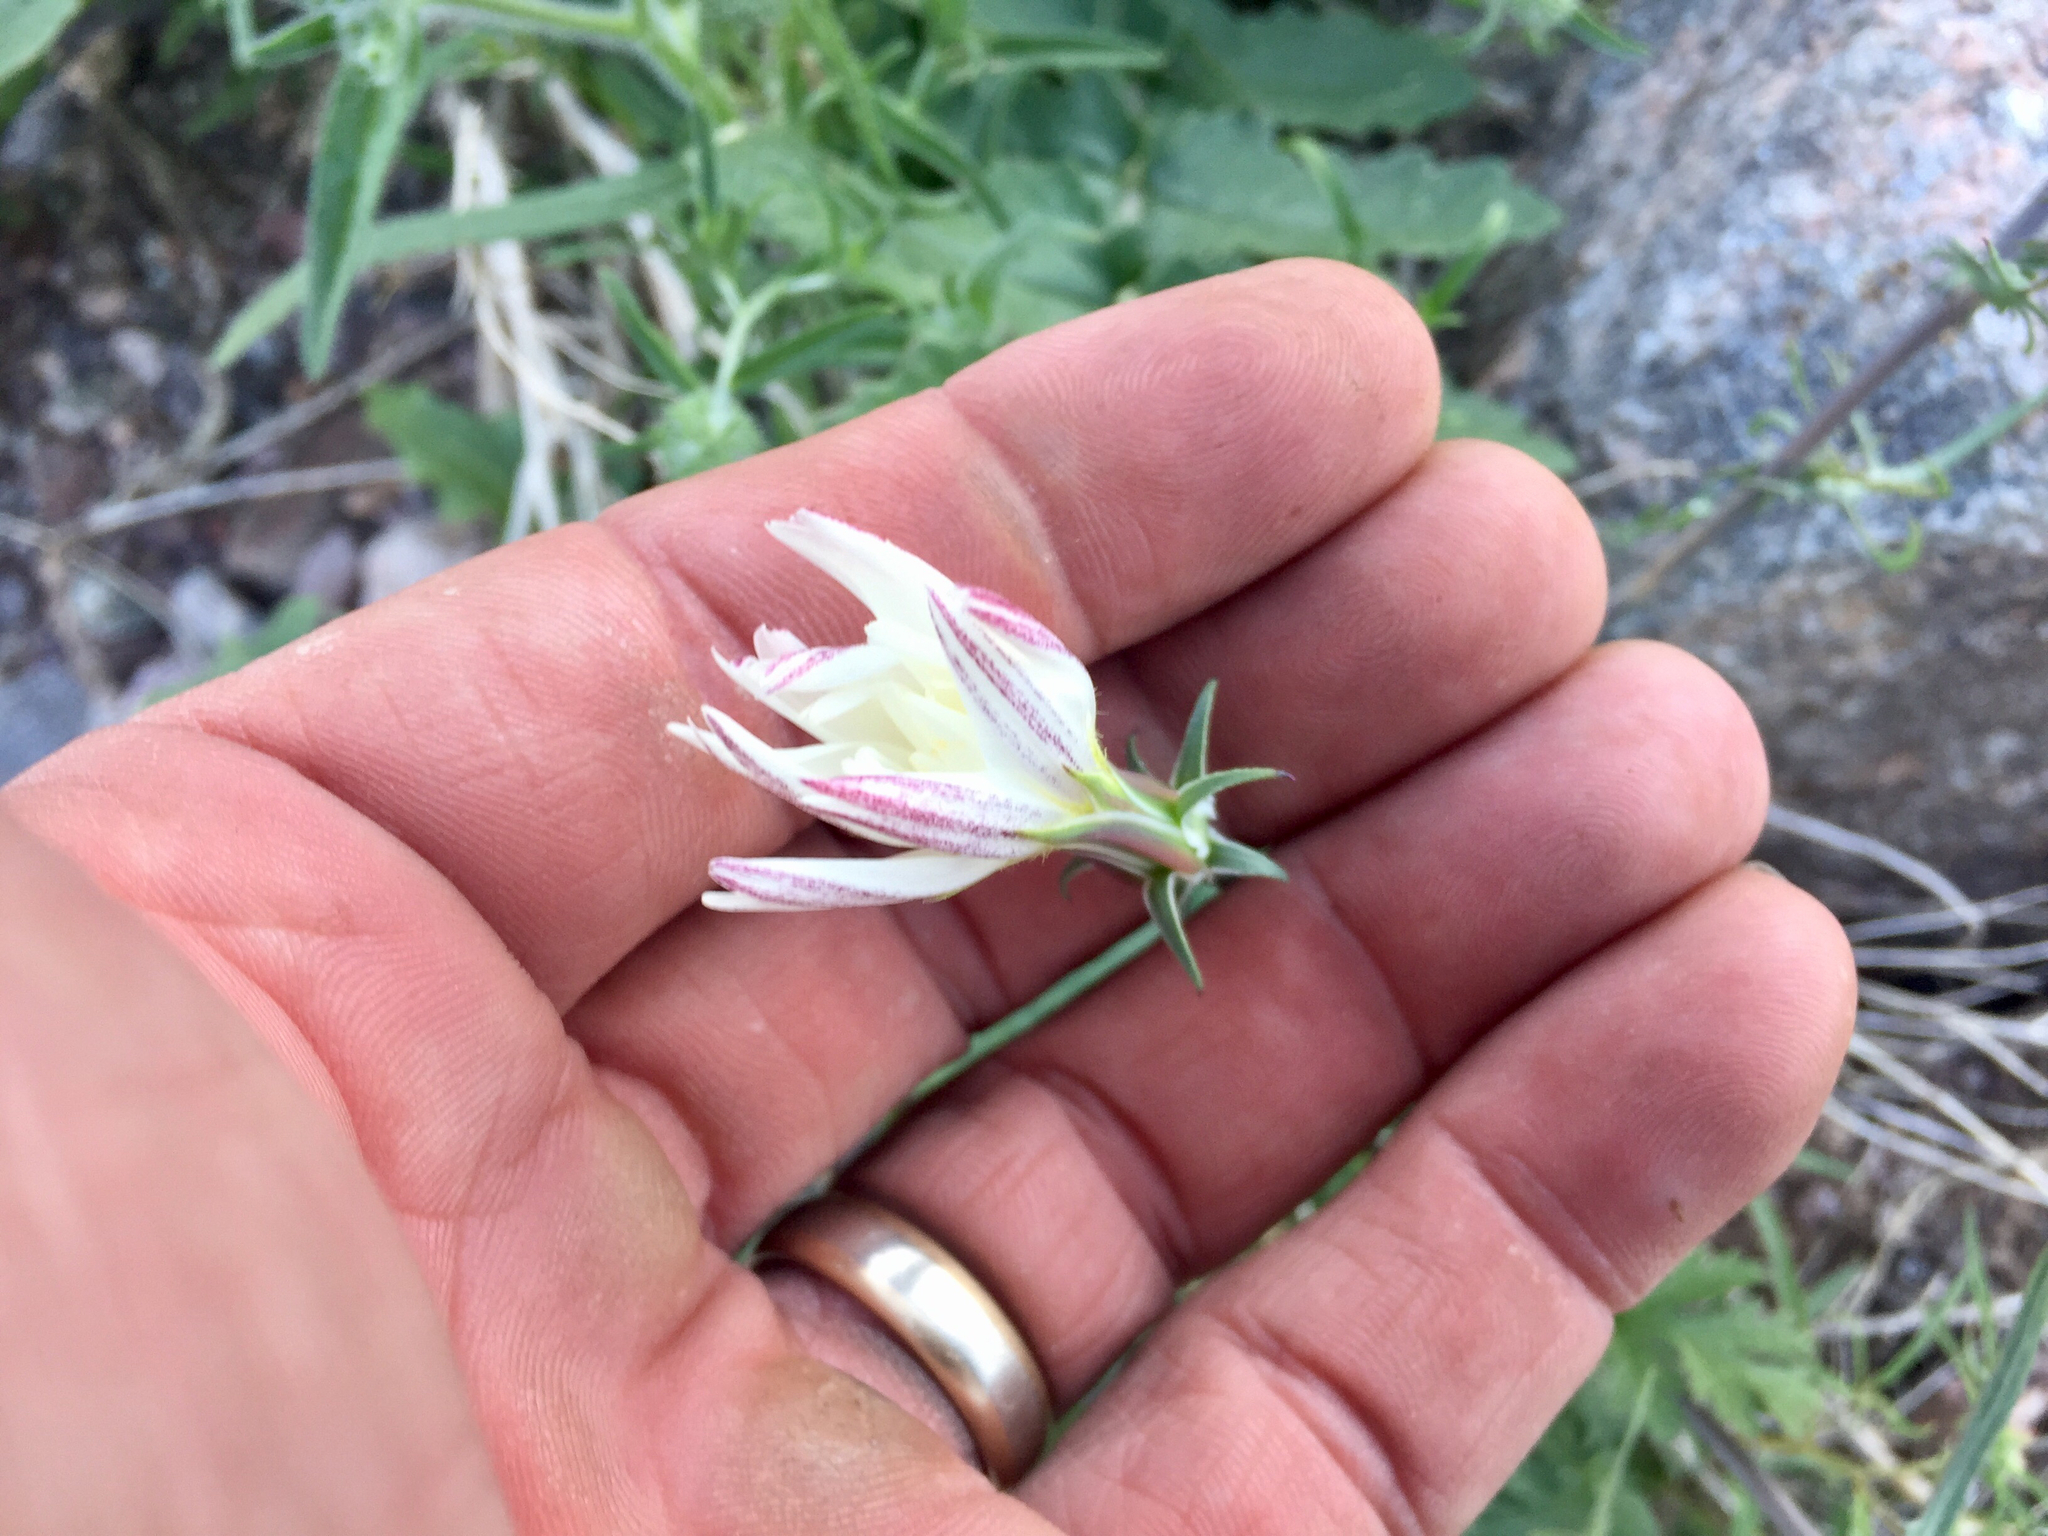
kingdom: Plantae
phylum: Tracheophyta
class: Magnoliopsida
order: Asterales
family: Asteraceae
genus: Rafinesquia
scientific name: Rafinesquia neomexicana
